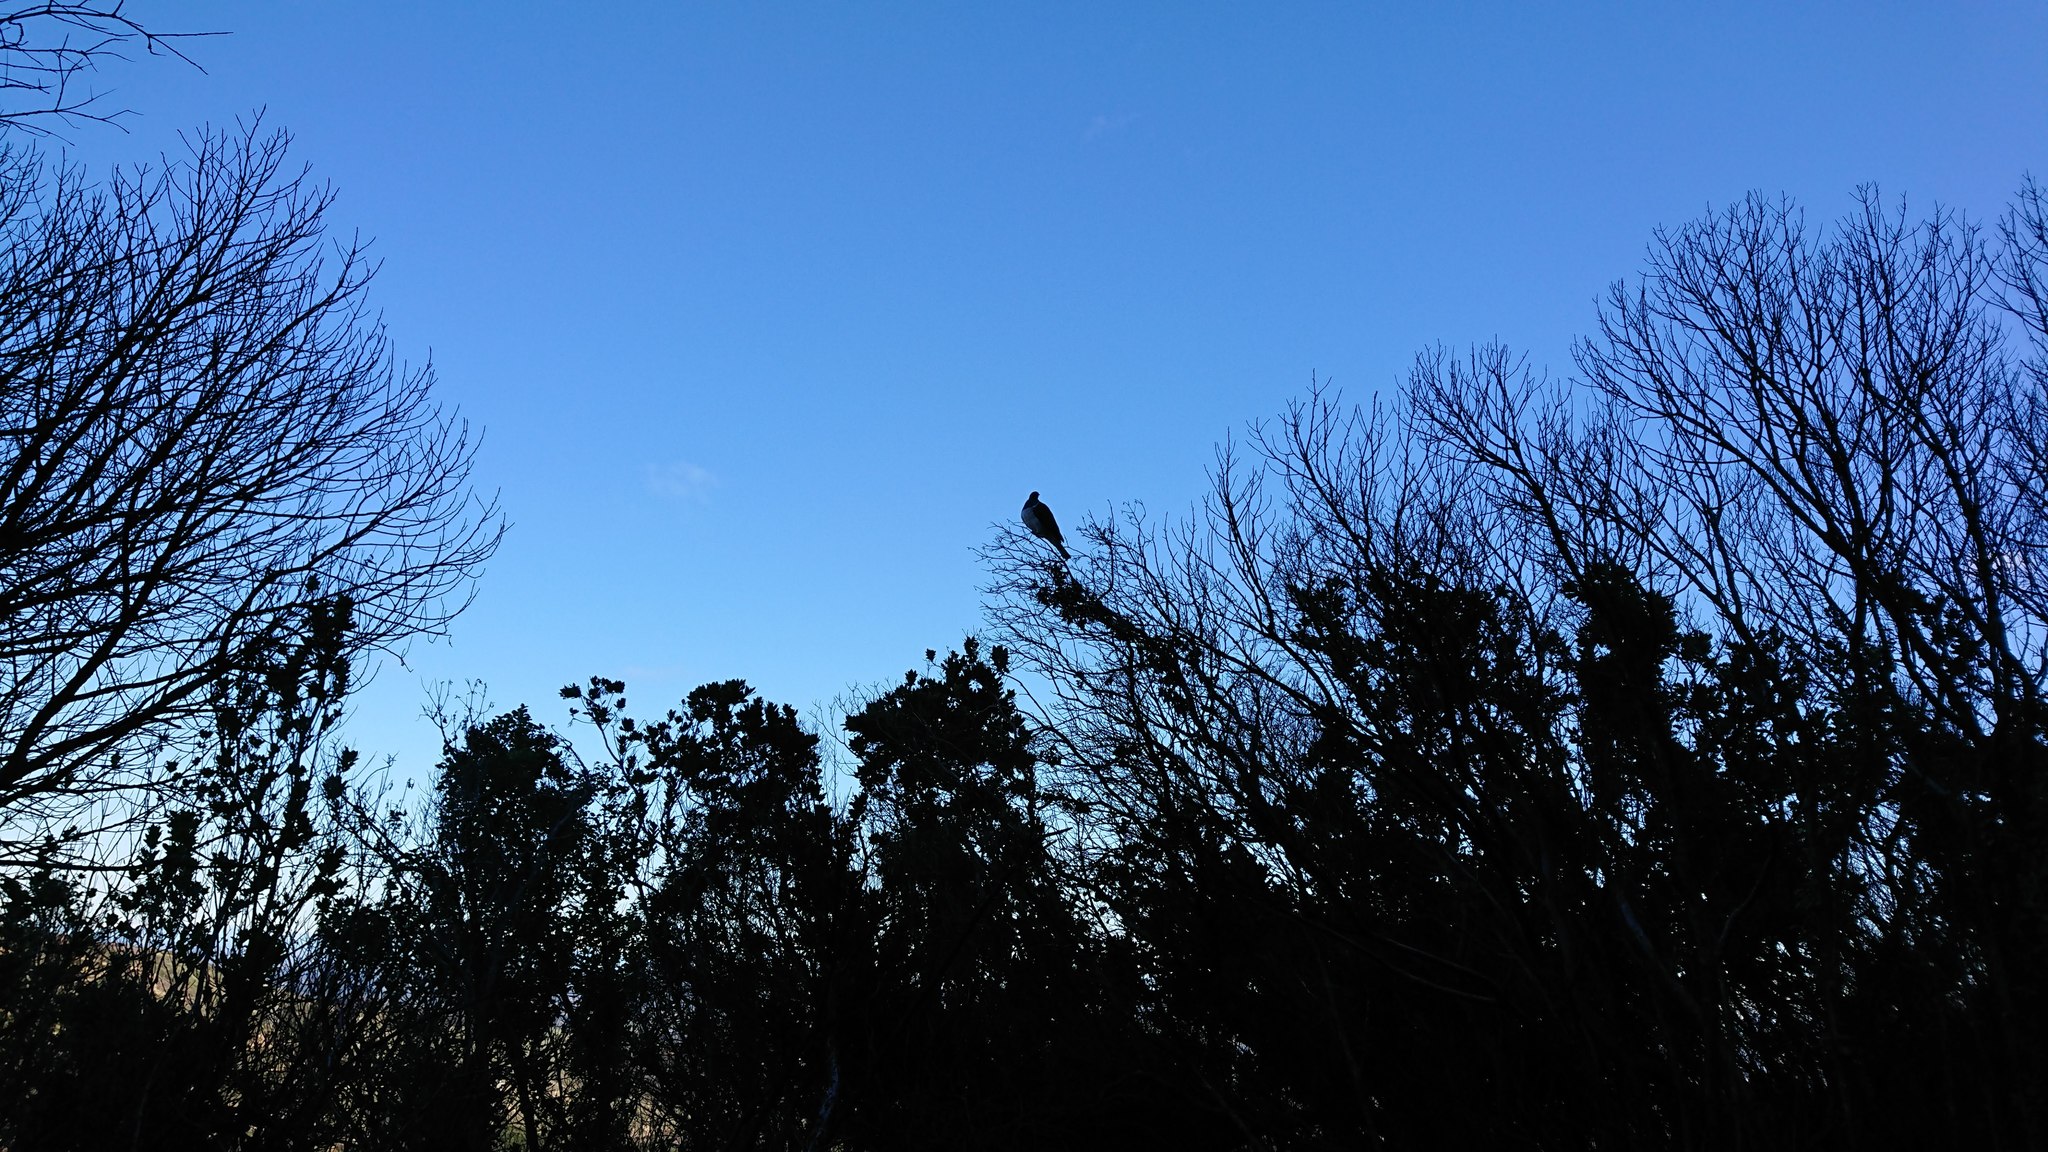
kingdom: Animalia
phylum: Chordata
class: Aves
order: Columbiformes
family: Columbidae
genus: Hemiphaga
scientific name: Hemiphaga novaeseelandiae
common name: New zealand pigeon
